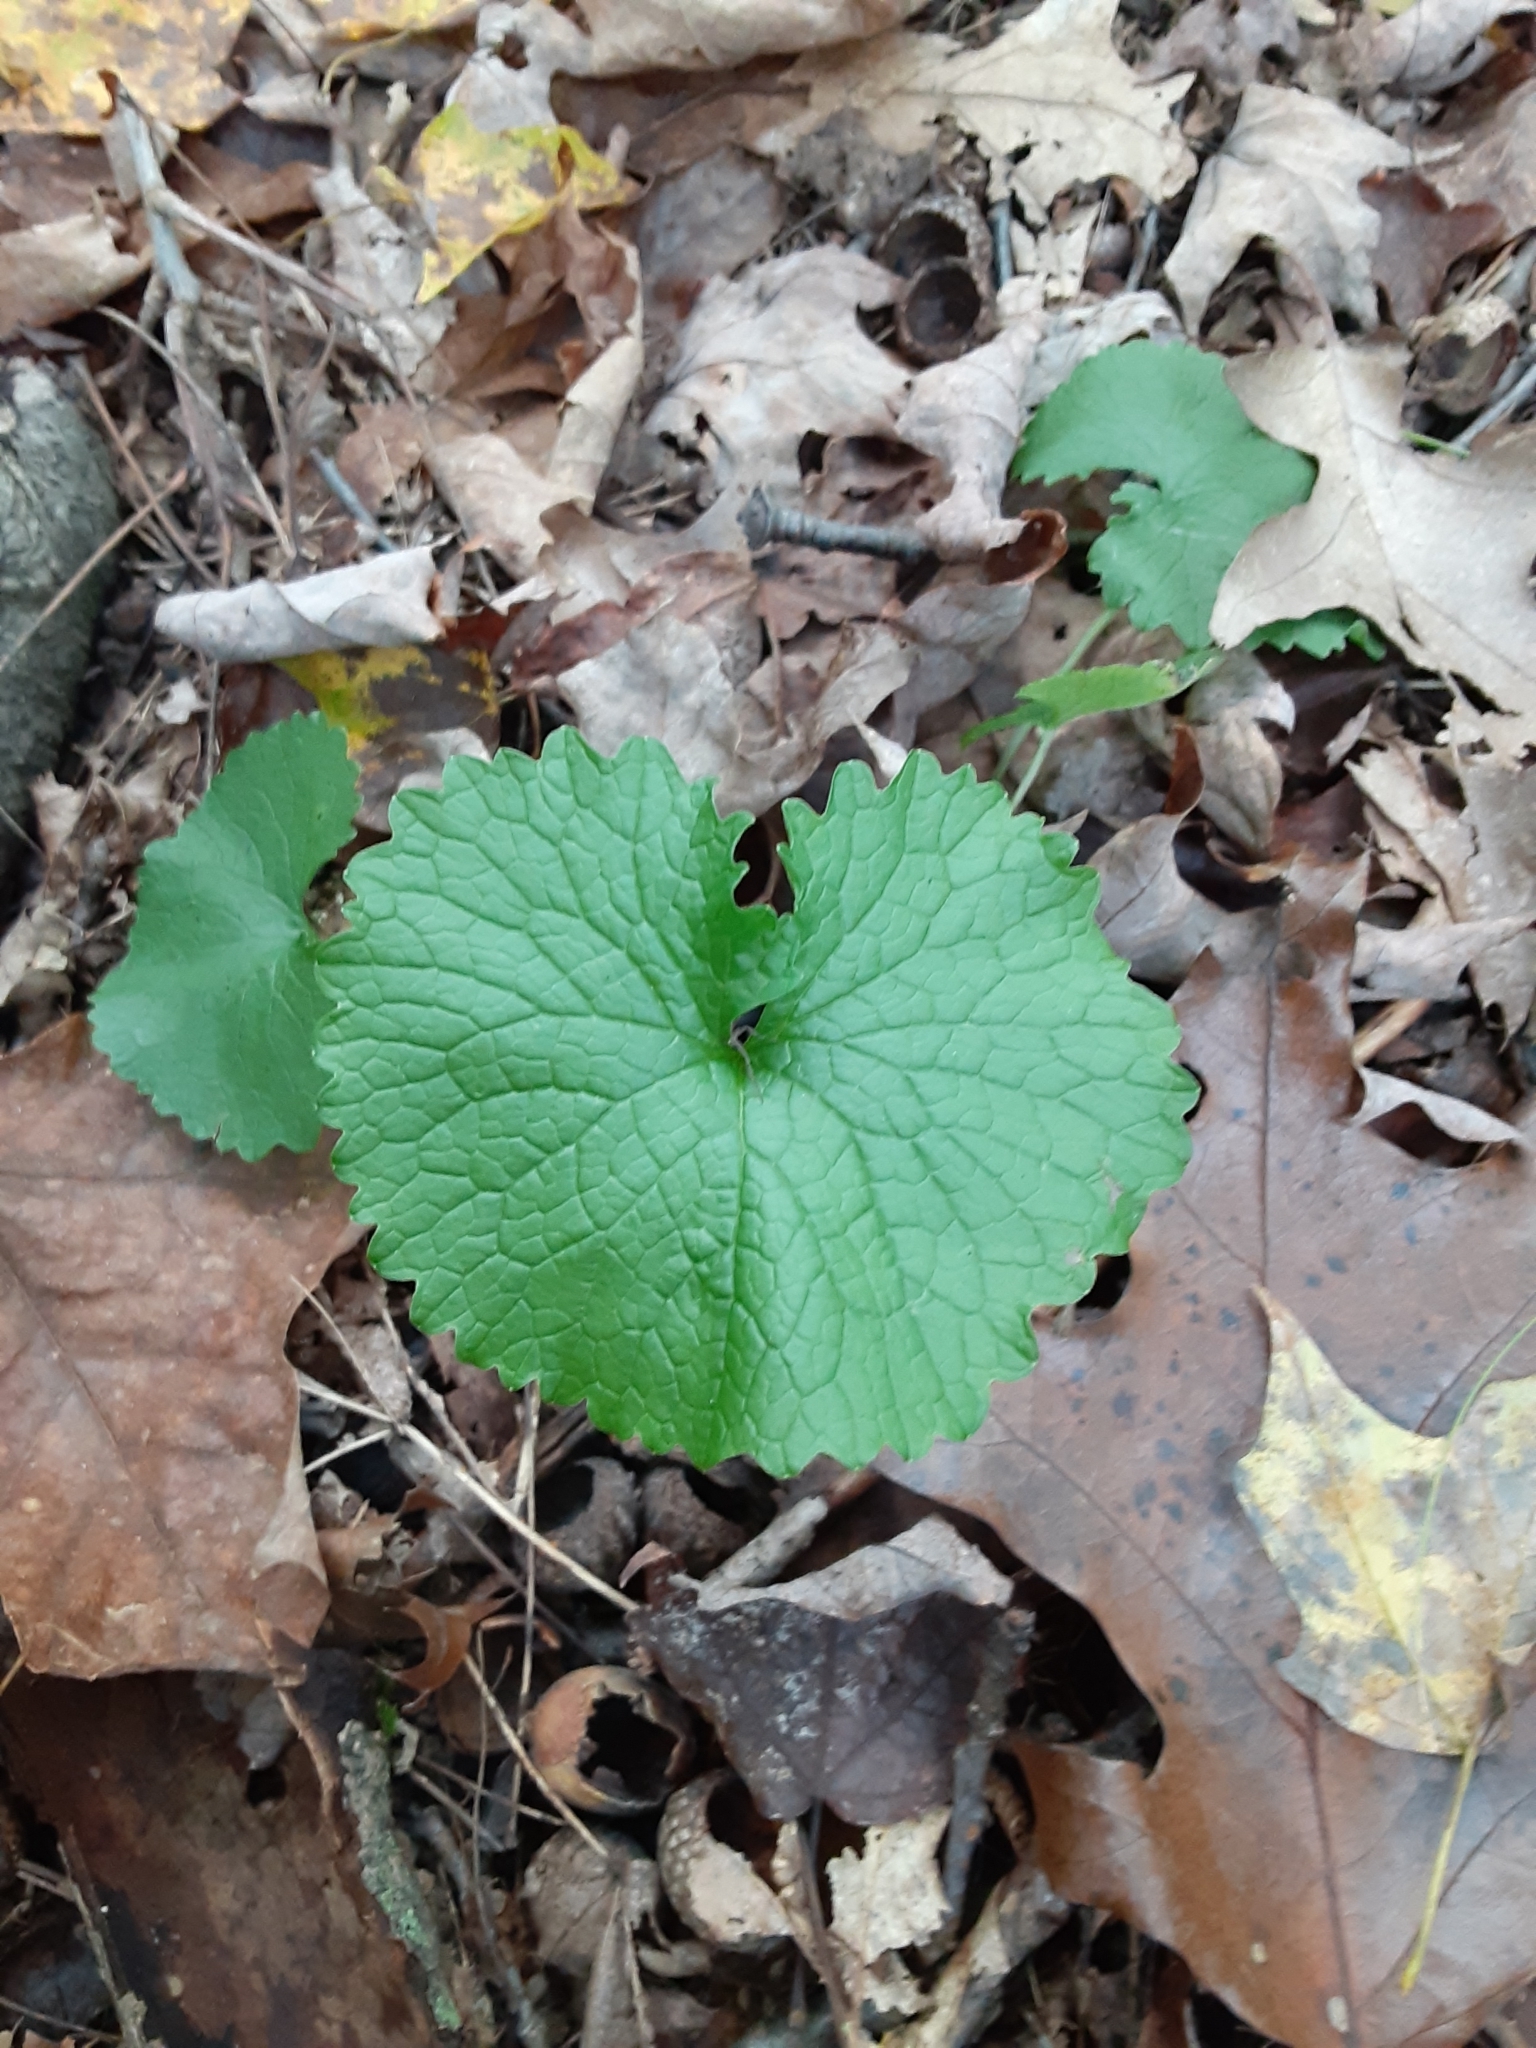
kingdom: Plantae
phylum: Tracheophyta
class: Magnoliopsida
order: Brassicales
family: Brassicaceae
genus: Alliaria
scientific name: Alliaria petiolata
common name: Garlic mustard
